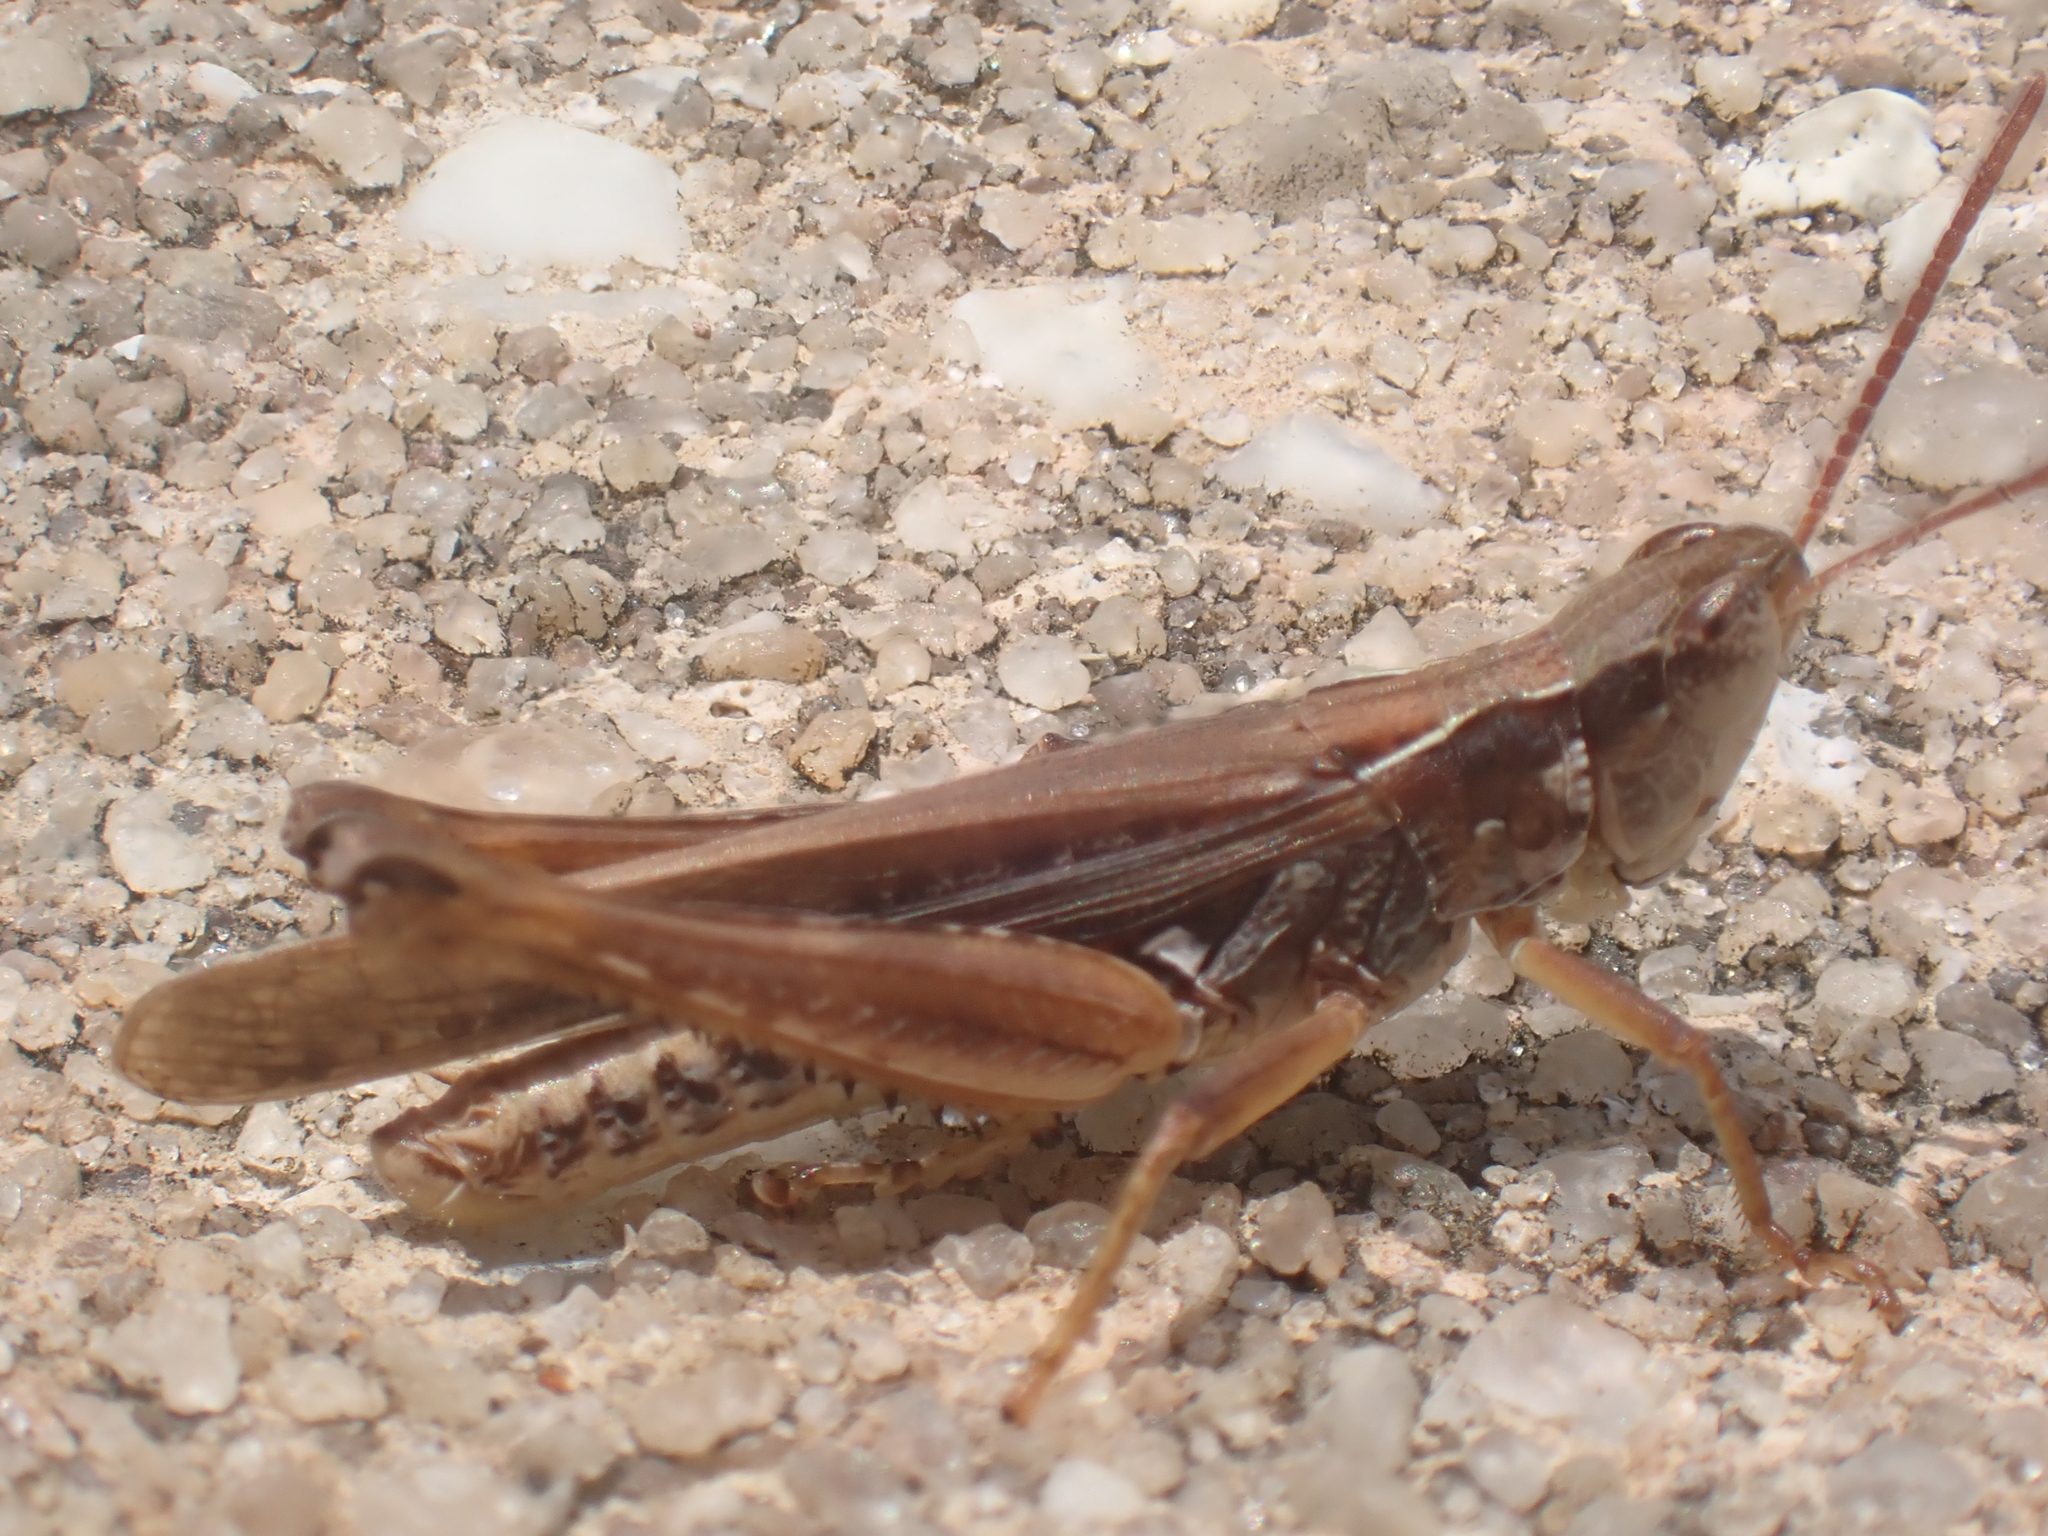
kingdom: Animalia
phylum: Arthropoda
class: Insecta
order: Orthoptera
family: Acrididae
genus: Orphulella
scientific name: Orphulella pelidna
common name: Spotted-wing grasshopper
